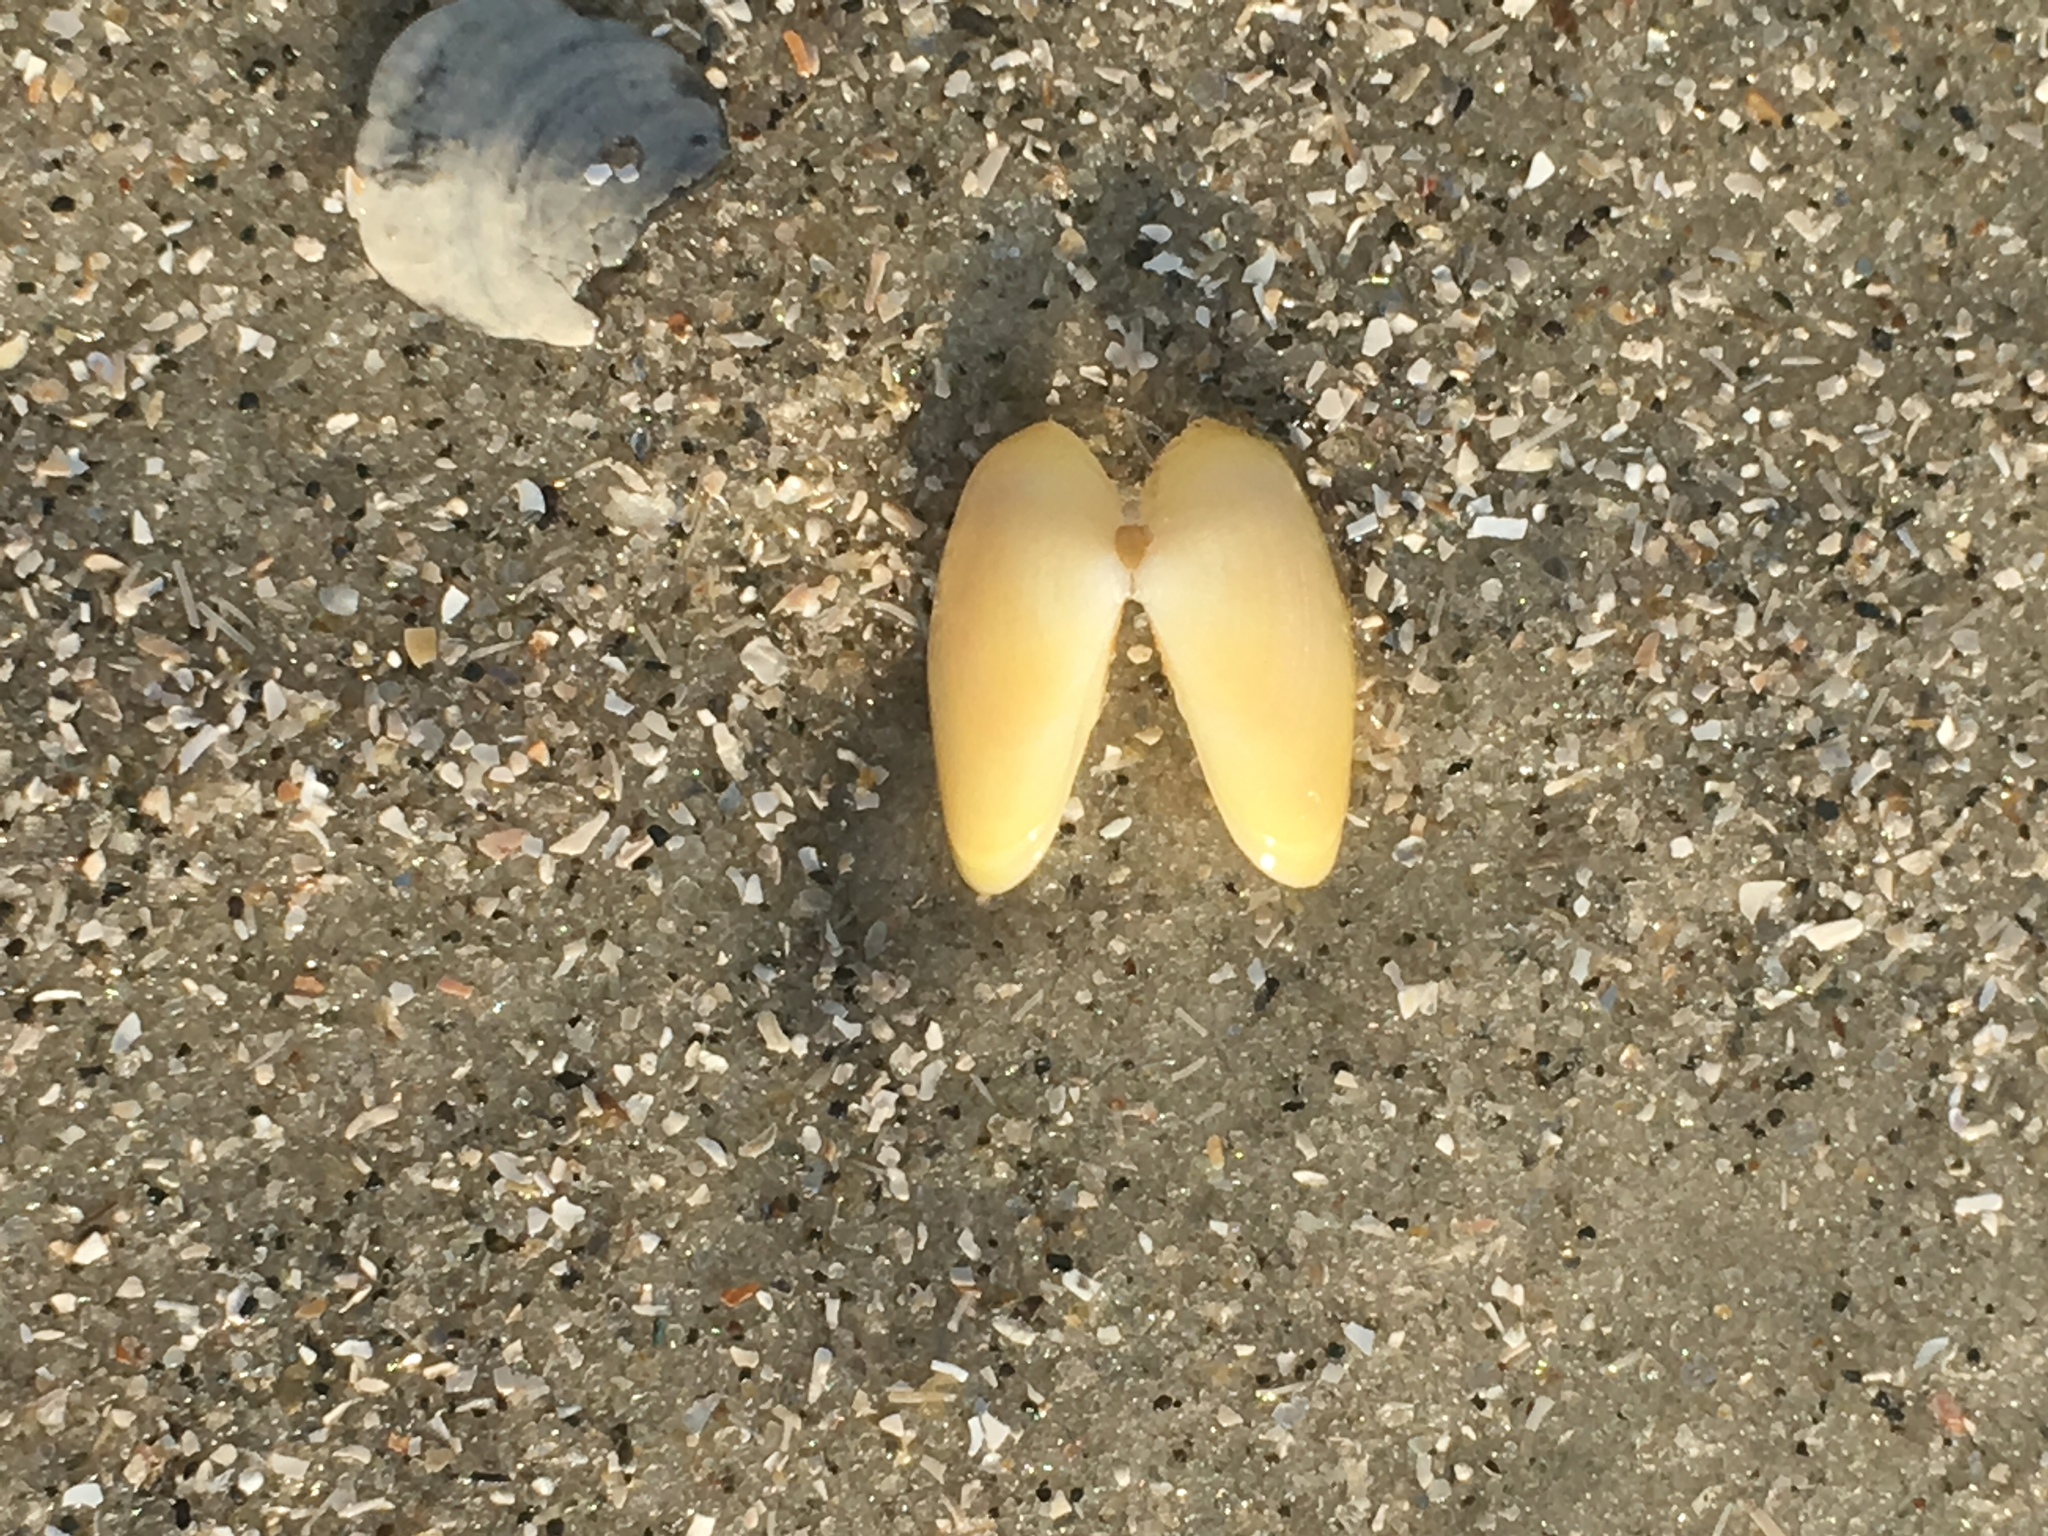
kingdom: Animalia
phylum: Mollusca
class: Bivalvia
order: Cardiida
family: Donacidae
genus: Donax
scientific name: Donax variabilis
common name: Butterfly shell
